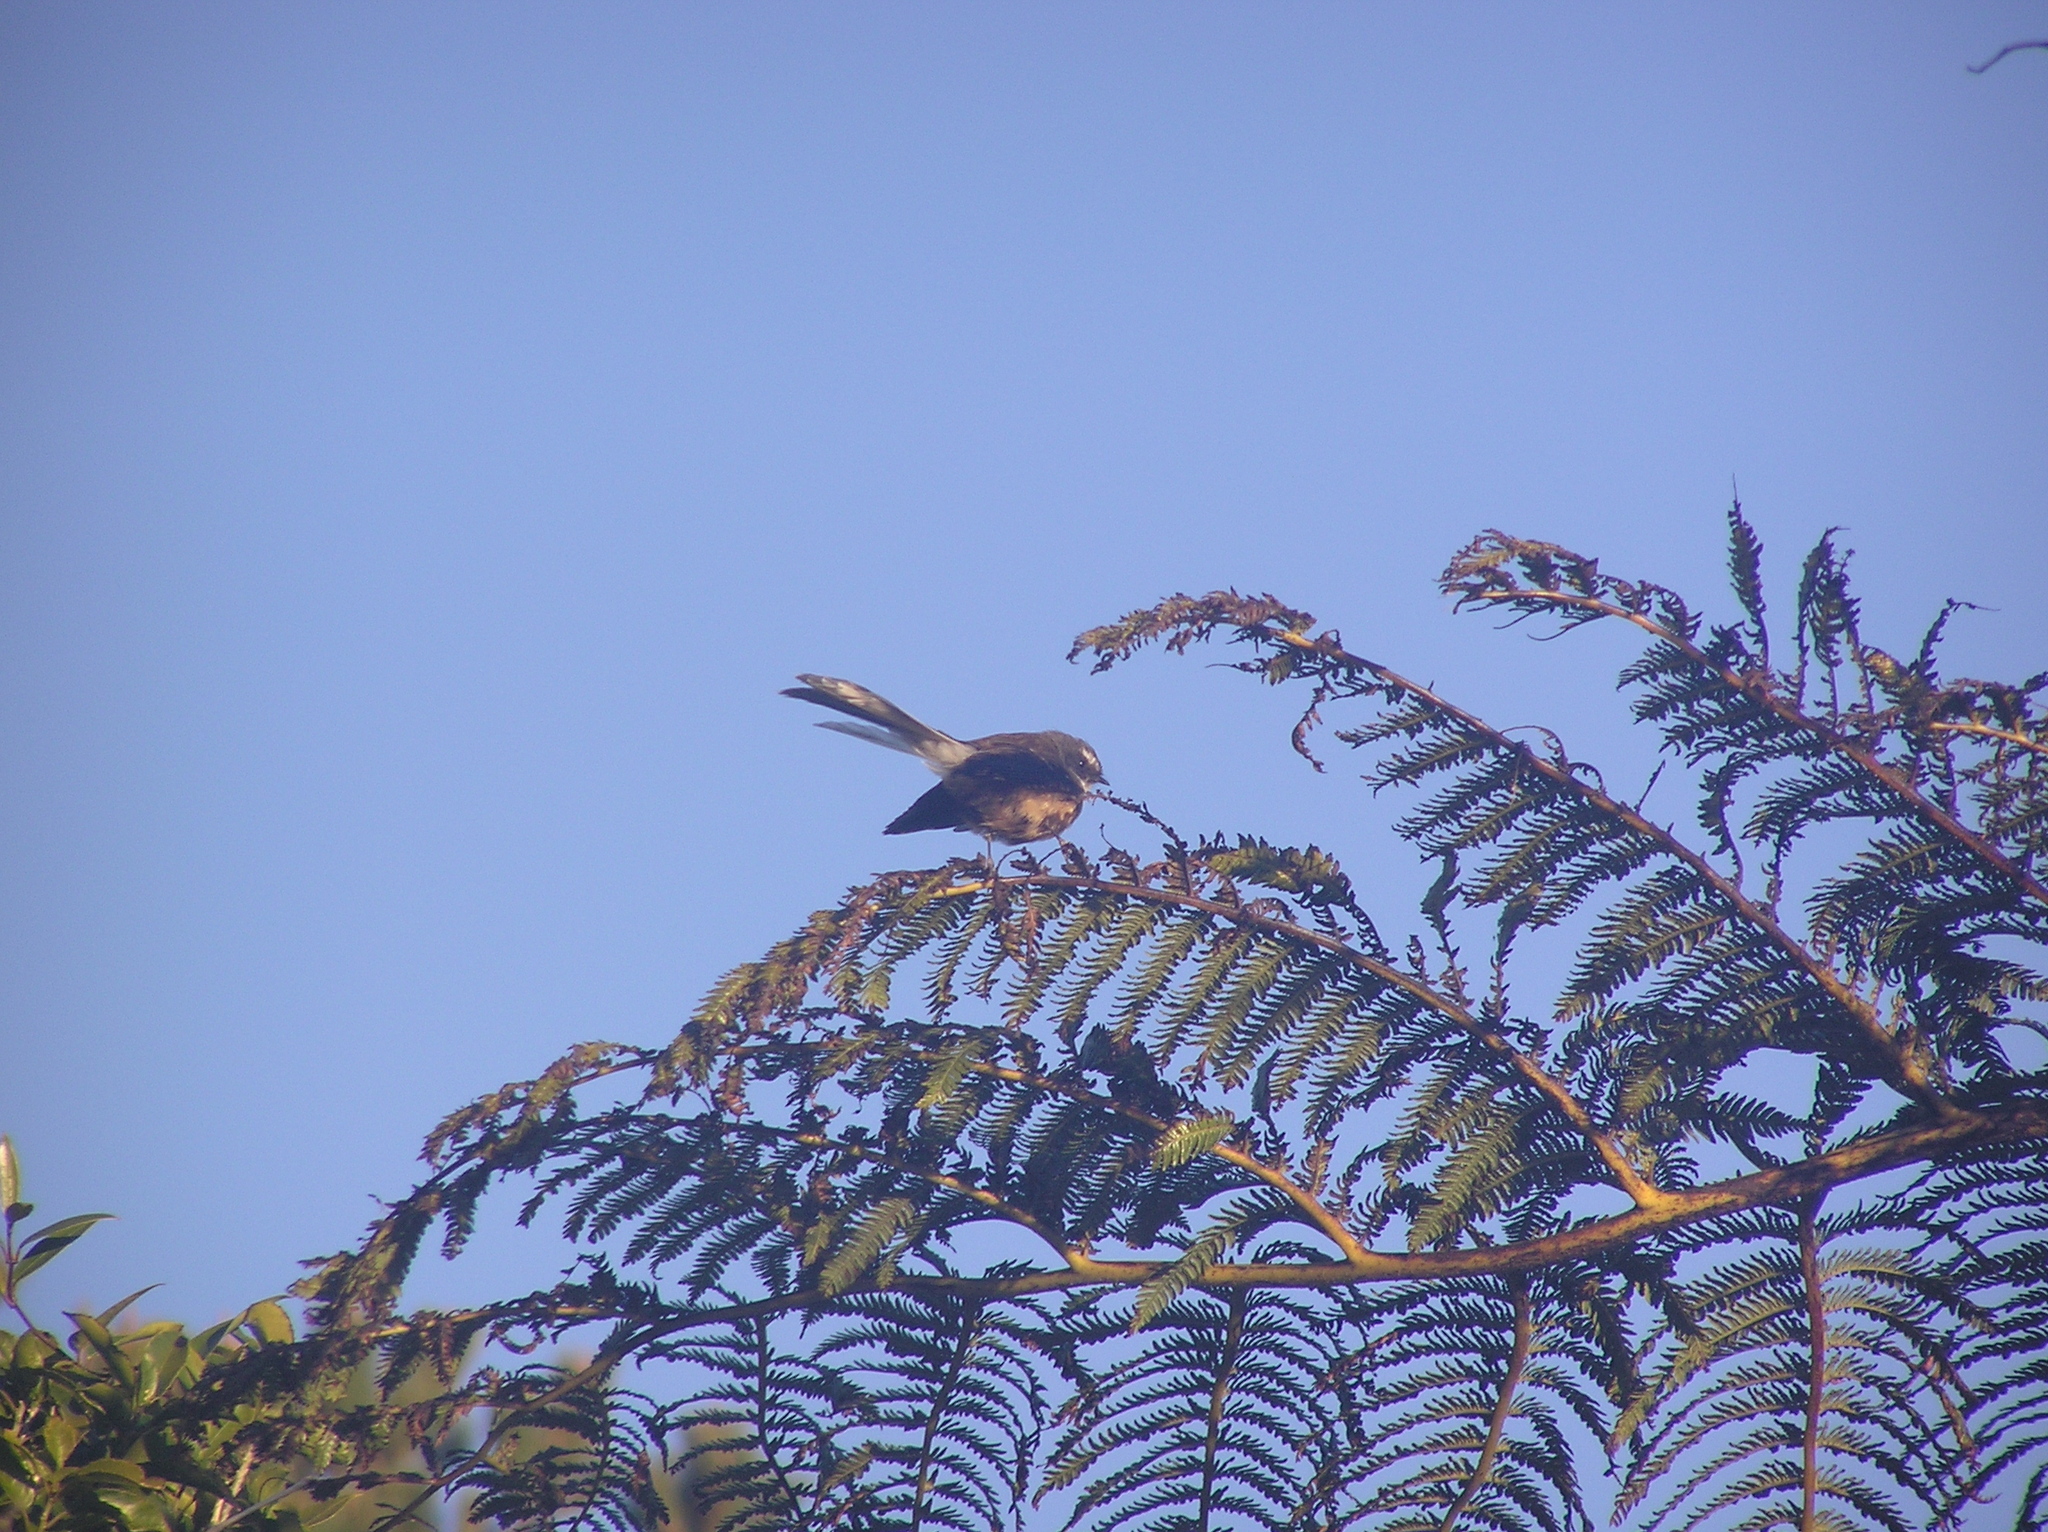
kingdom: Animalia
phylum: Chordata
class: Aves
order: Passeriformes
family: Rhipiduridae
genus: Rhipidura
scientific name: Rhipidura fuliginosa
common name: New zealand fantail
